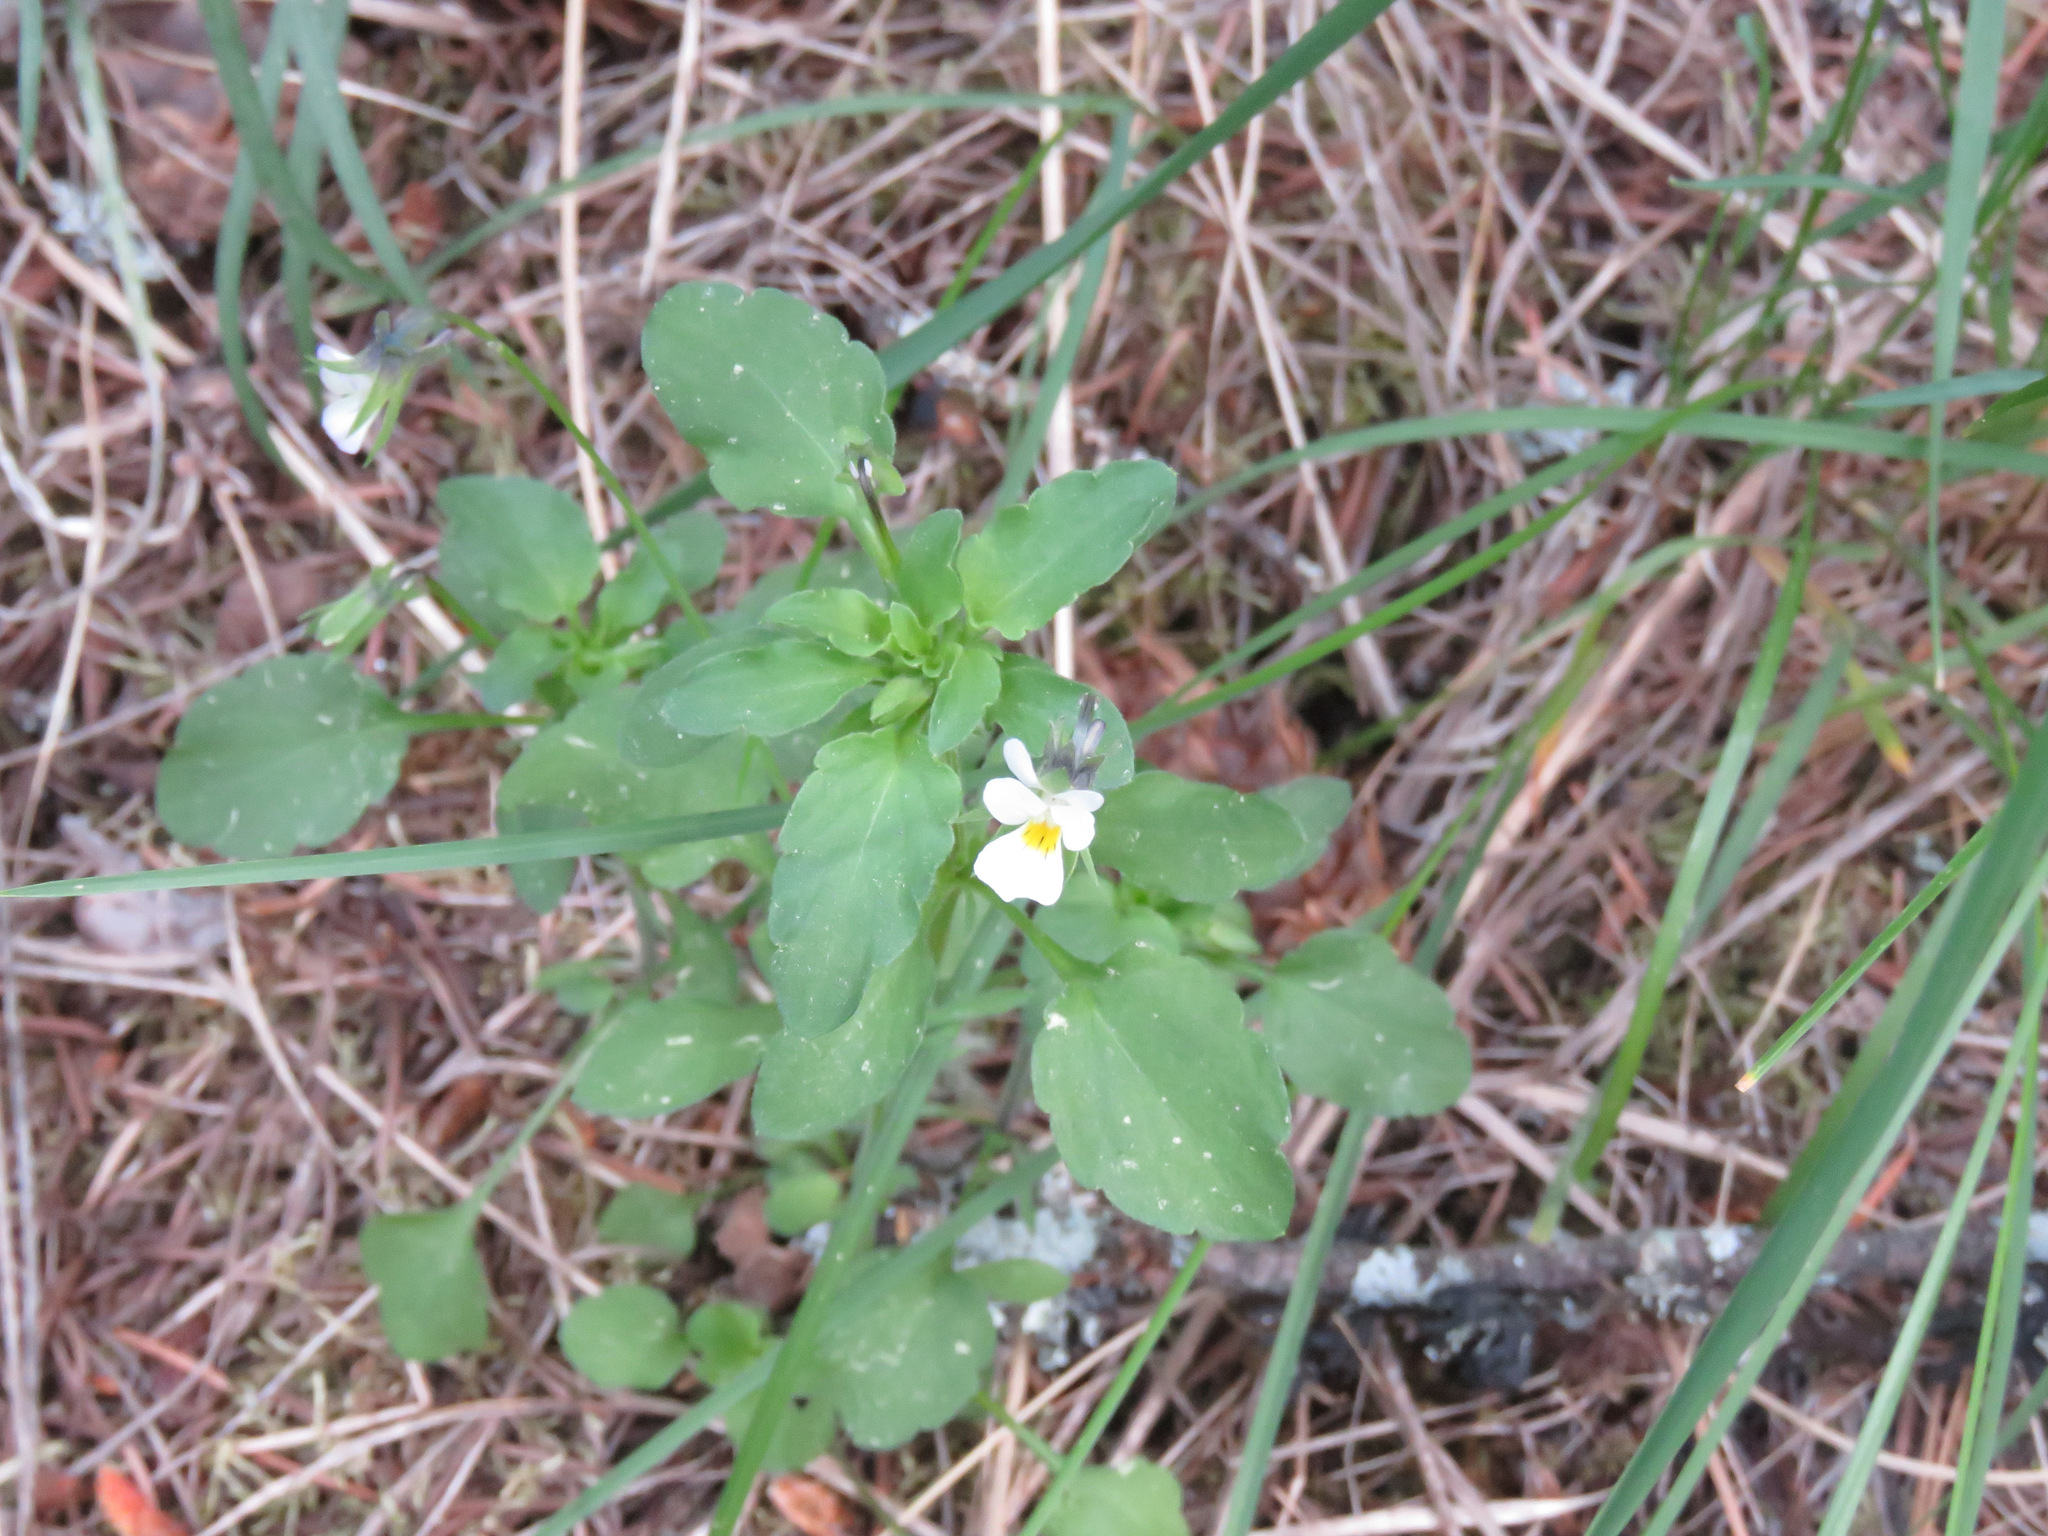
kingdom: Plantae
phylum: Tracheophyta
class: Magnoliopsida
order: Malpighiales
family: Violaceae
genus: Viola
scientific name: Viola arvensis
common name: Field pansy
